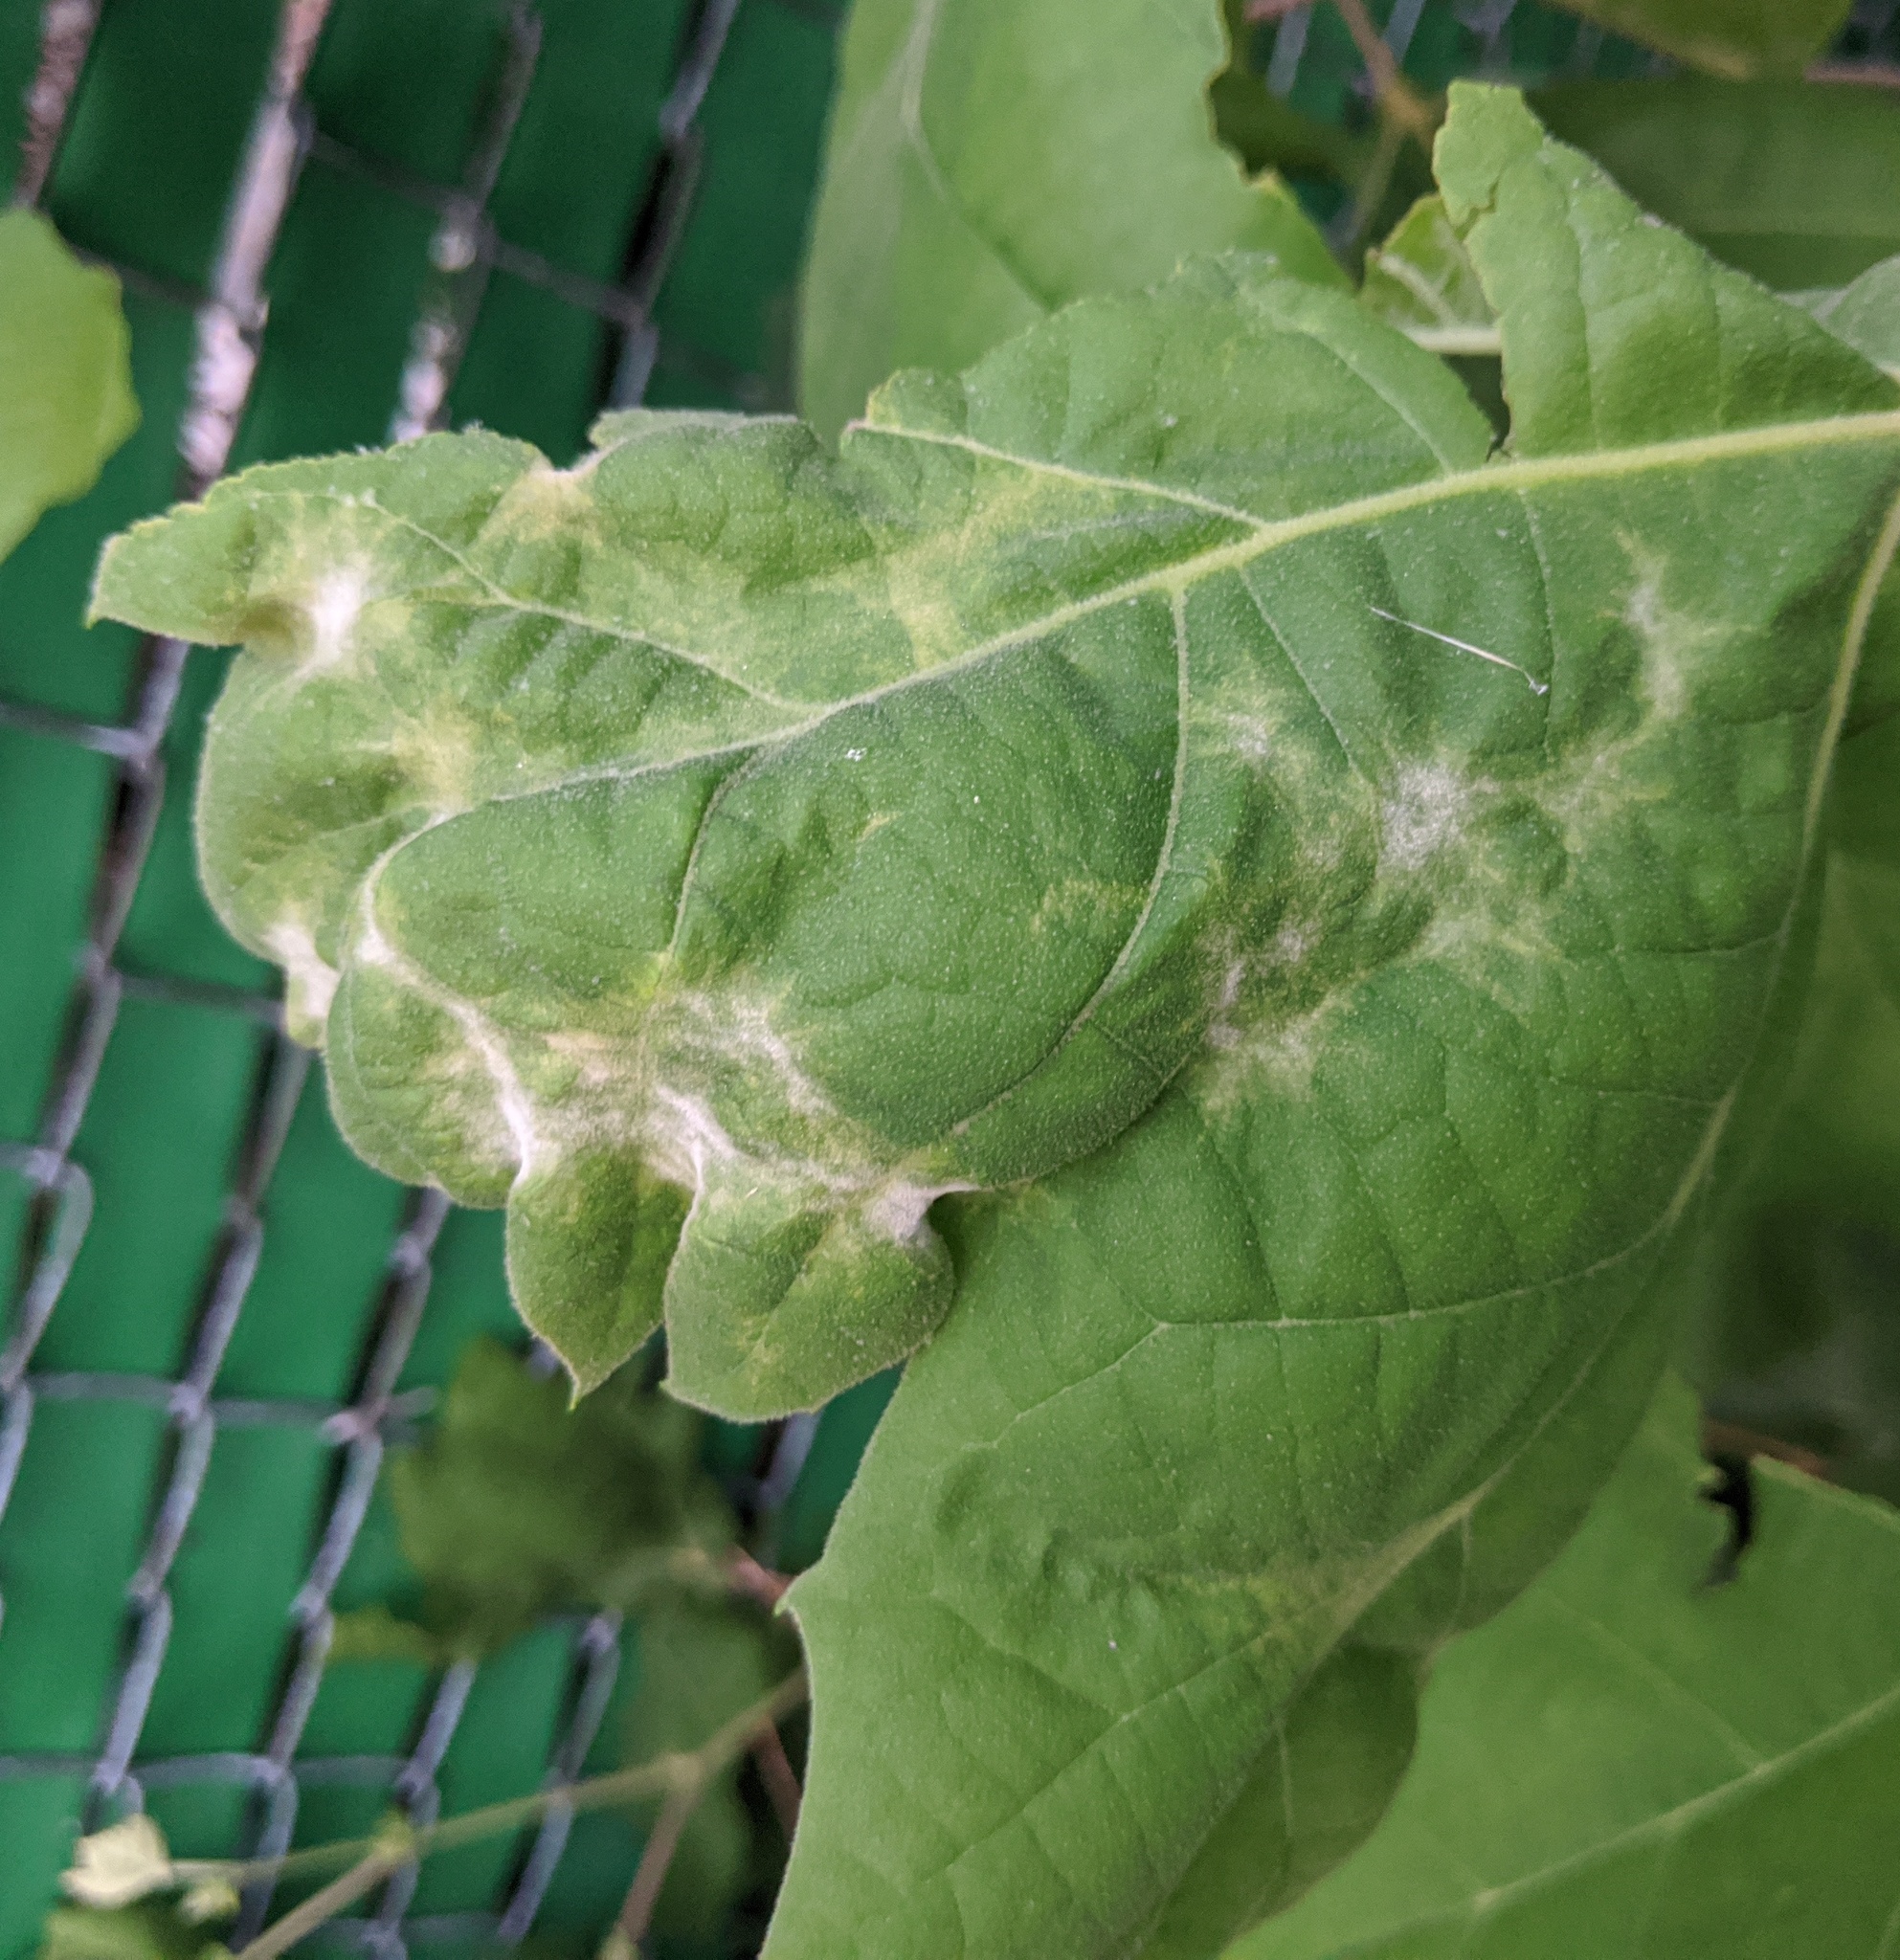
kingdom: Fungi
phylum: Ascomycota
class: Leotiomycetes
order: Helotiales
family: Erysiphaceae
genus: Erysiphe
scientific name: Erysiphe platani
